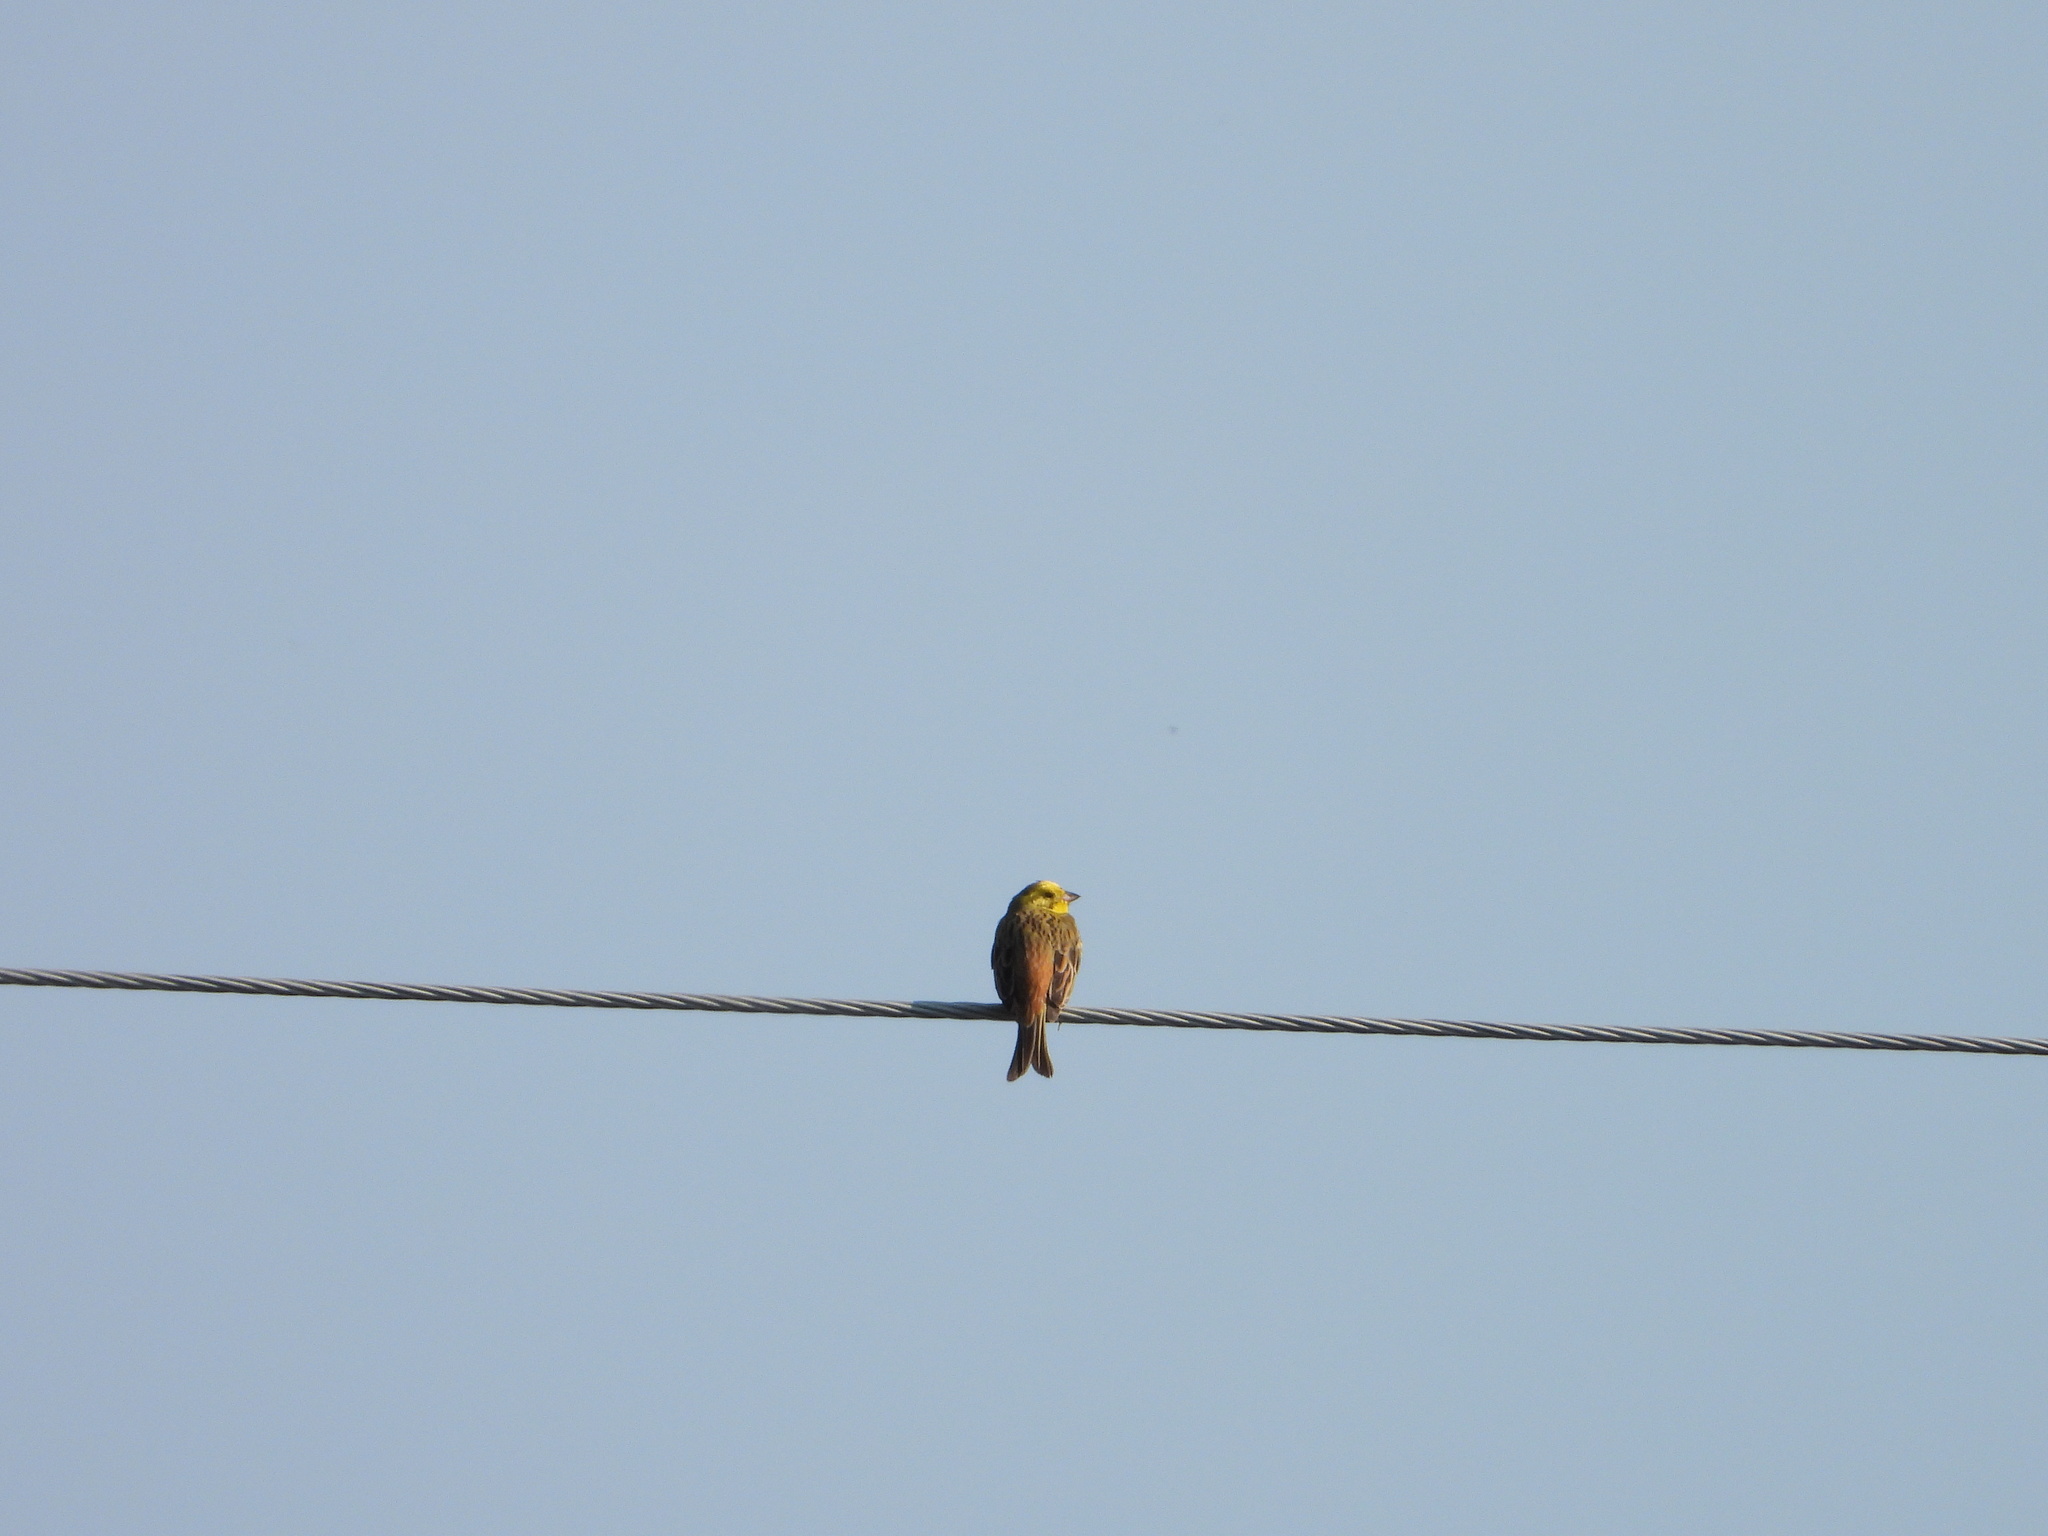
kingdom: Animalia
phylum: Chordata
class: Aves
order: Passeriformes
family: Emberizidae
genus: Emberiza
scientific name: Emberiza citrinella
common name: Yellowhammer
